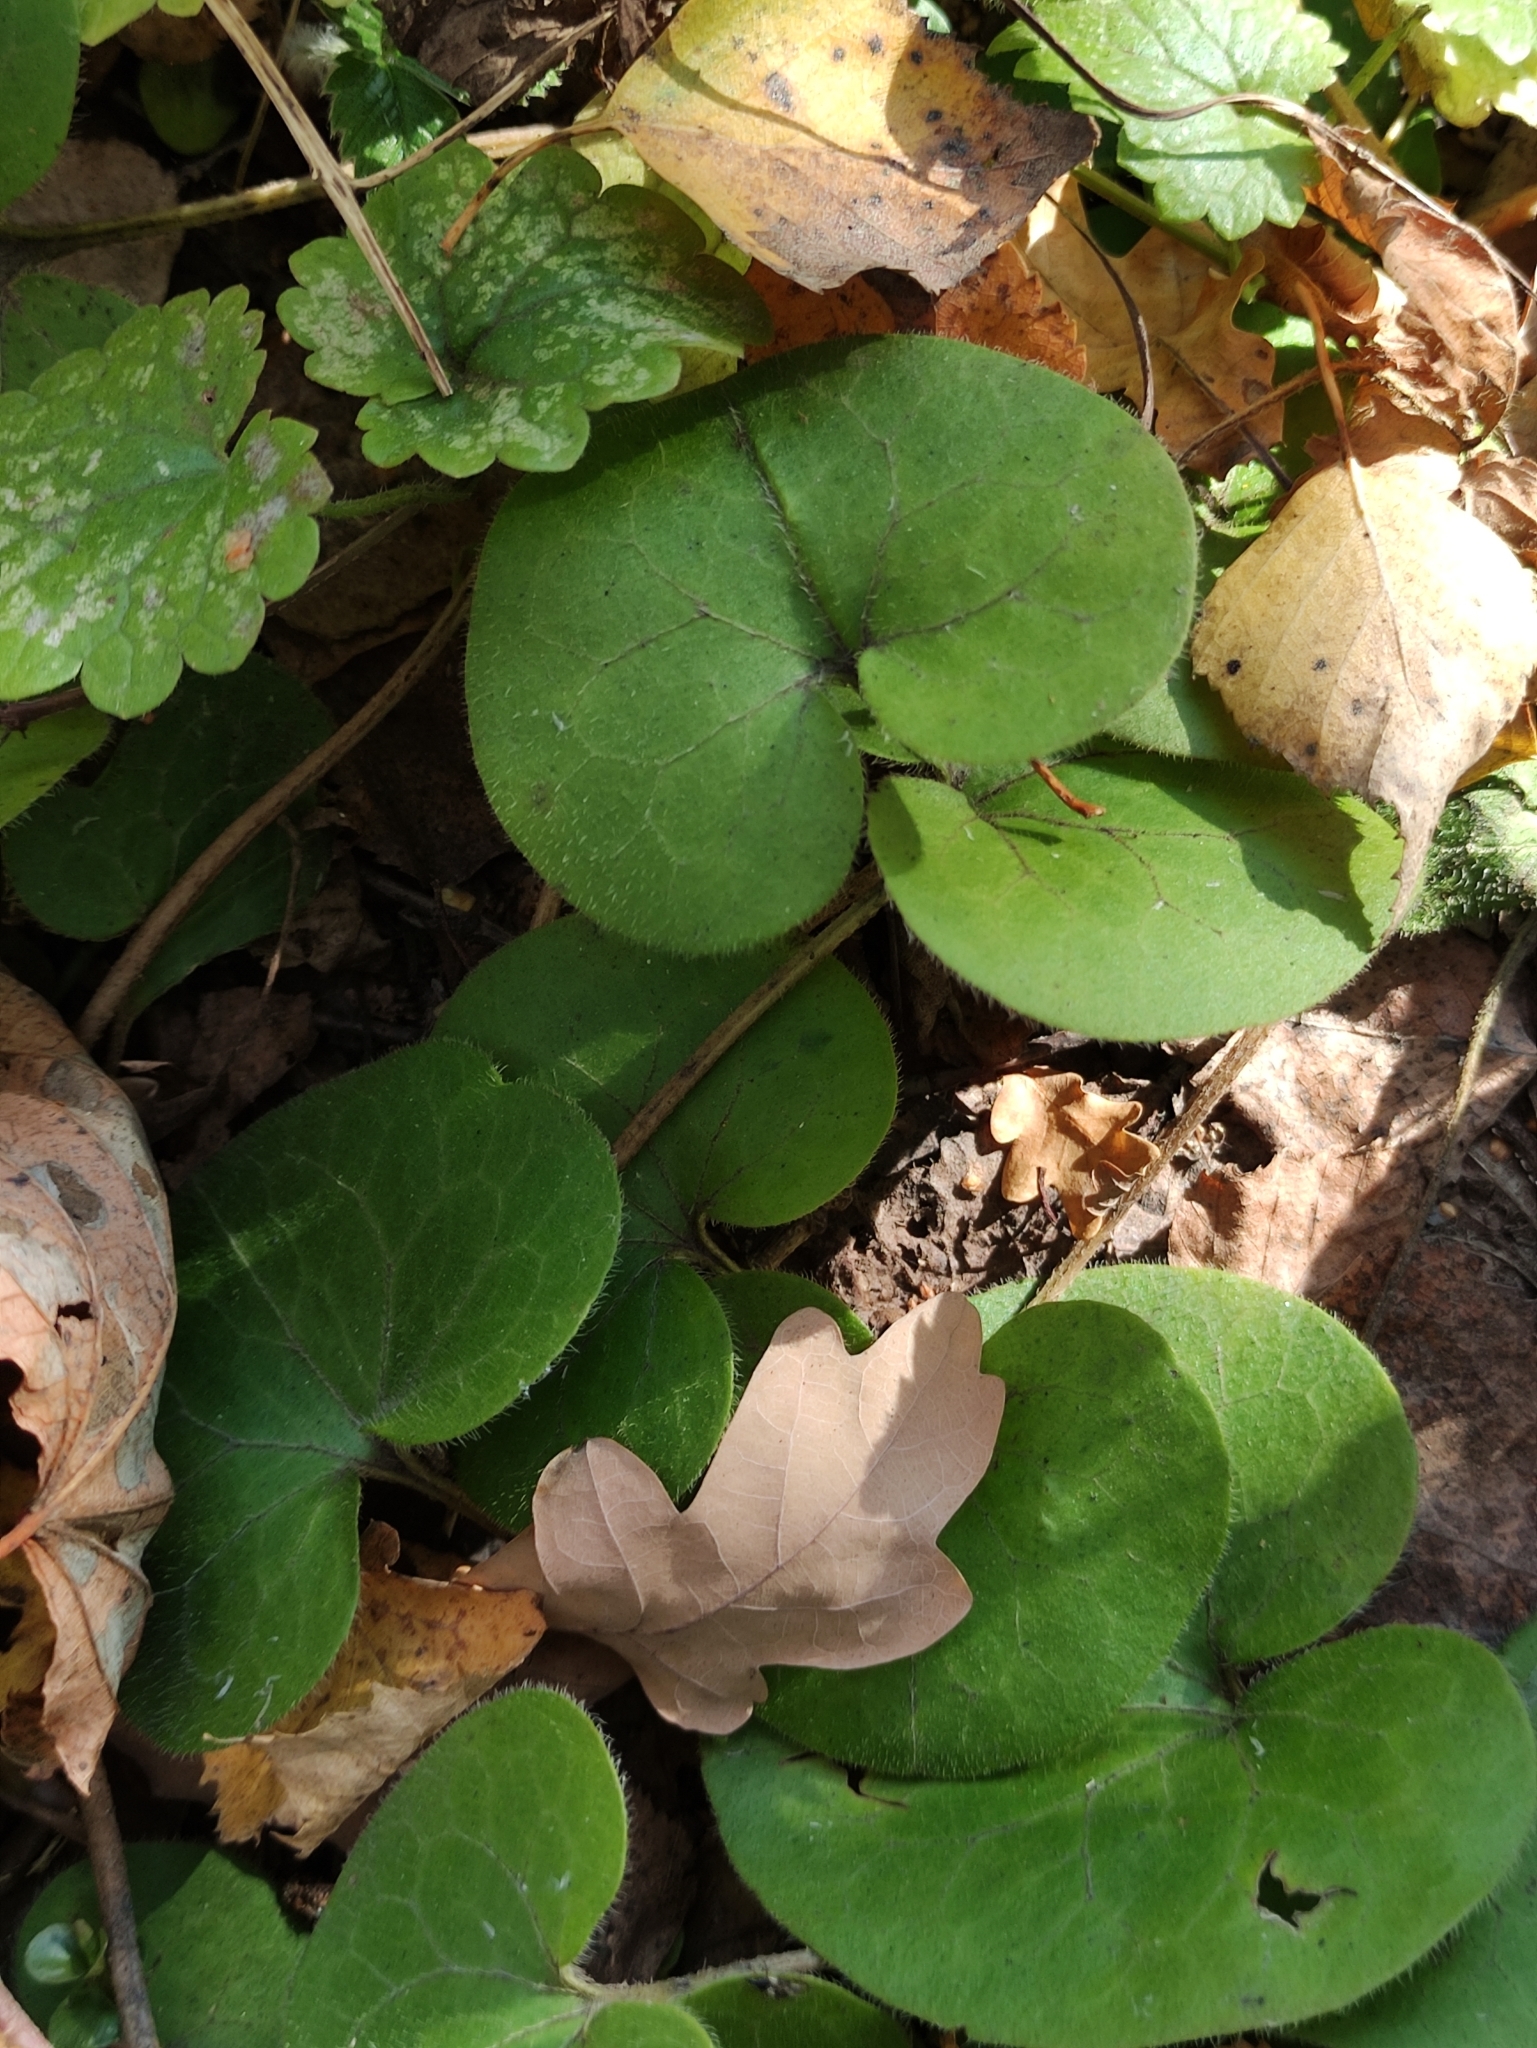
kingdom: Plantae
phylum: Tracheophyta
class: Magnoliopsida
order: Piperales
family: Aristolochiaceae
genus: Asarum
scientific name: Asarum europaeum
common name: Asarabacca
